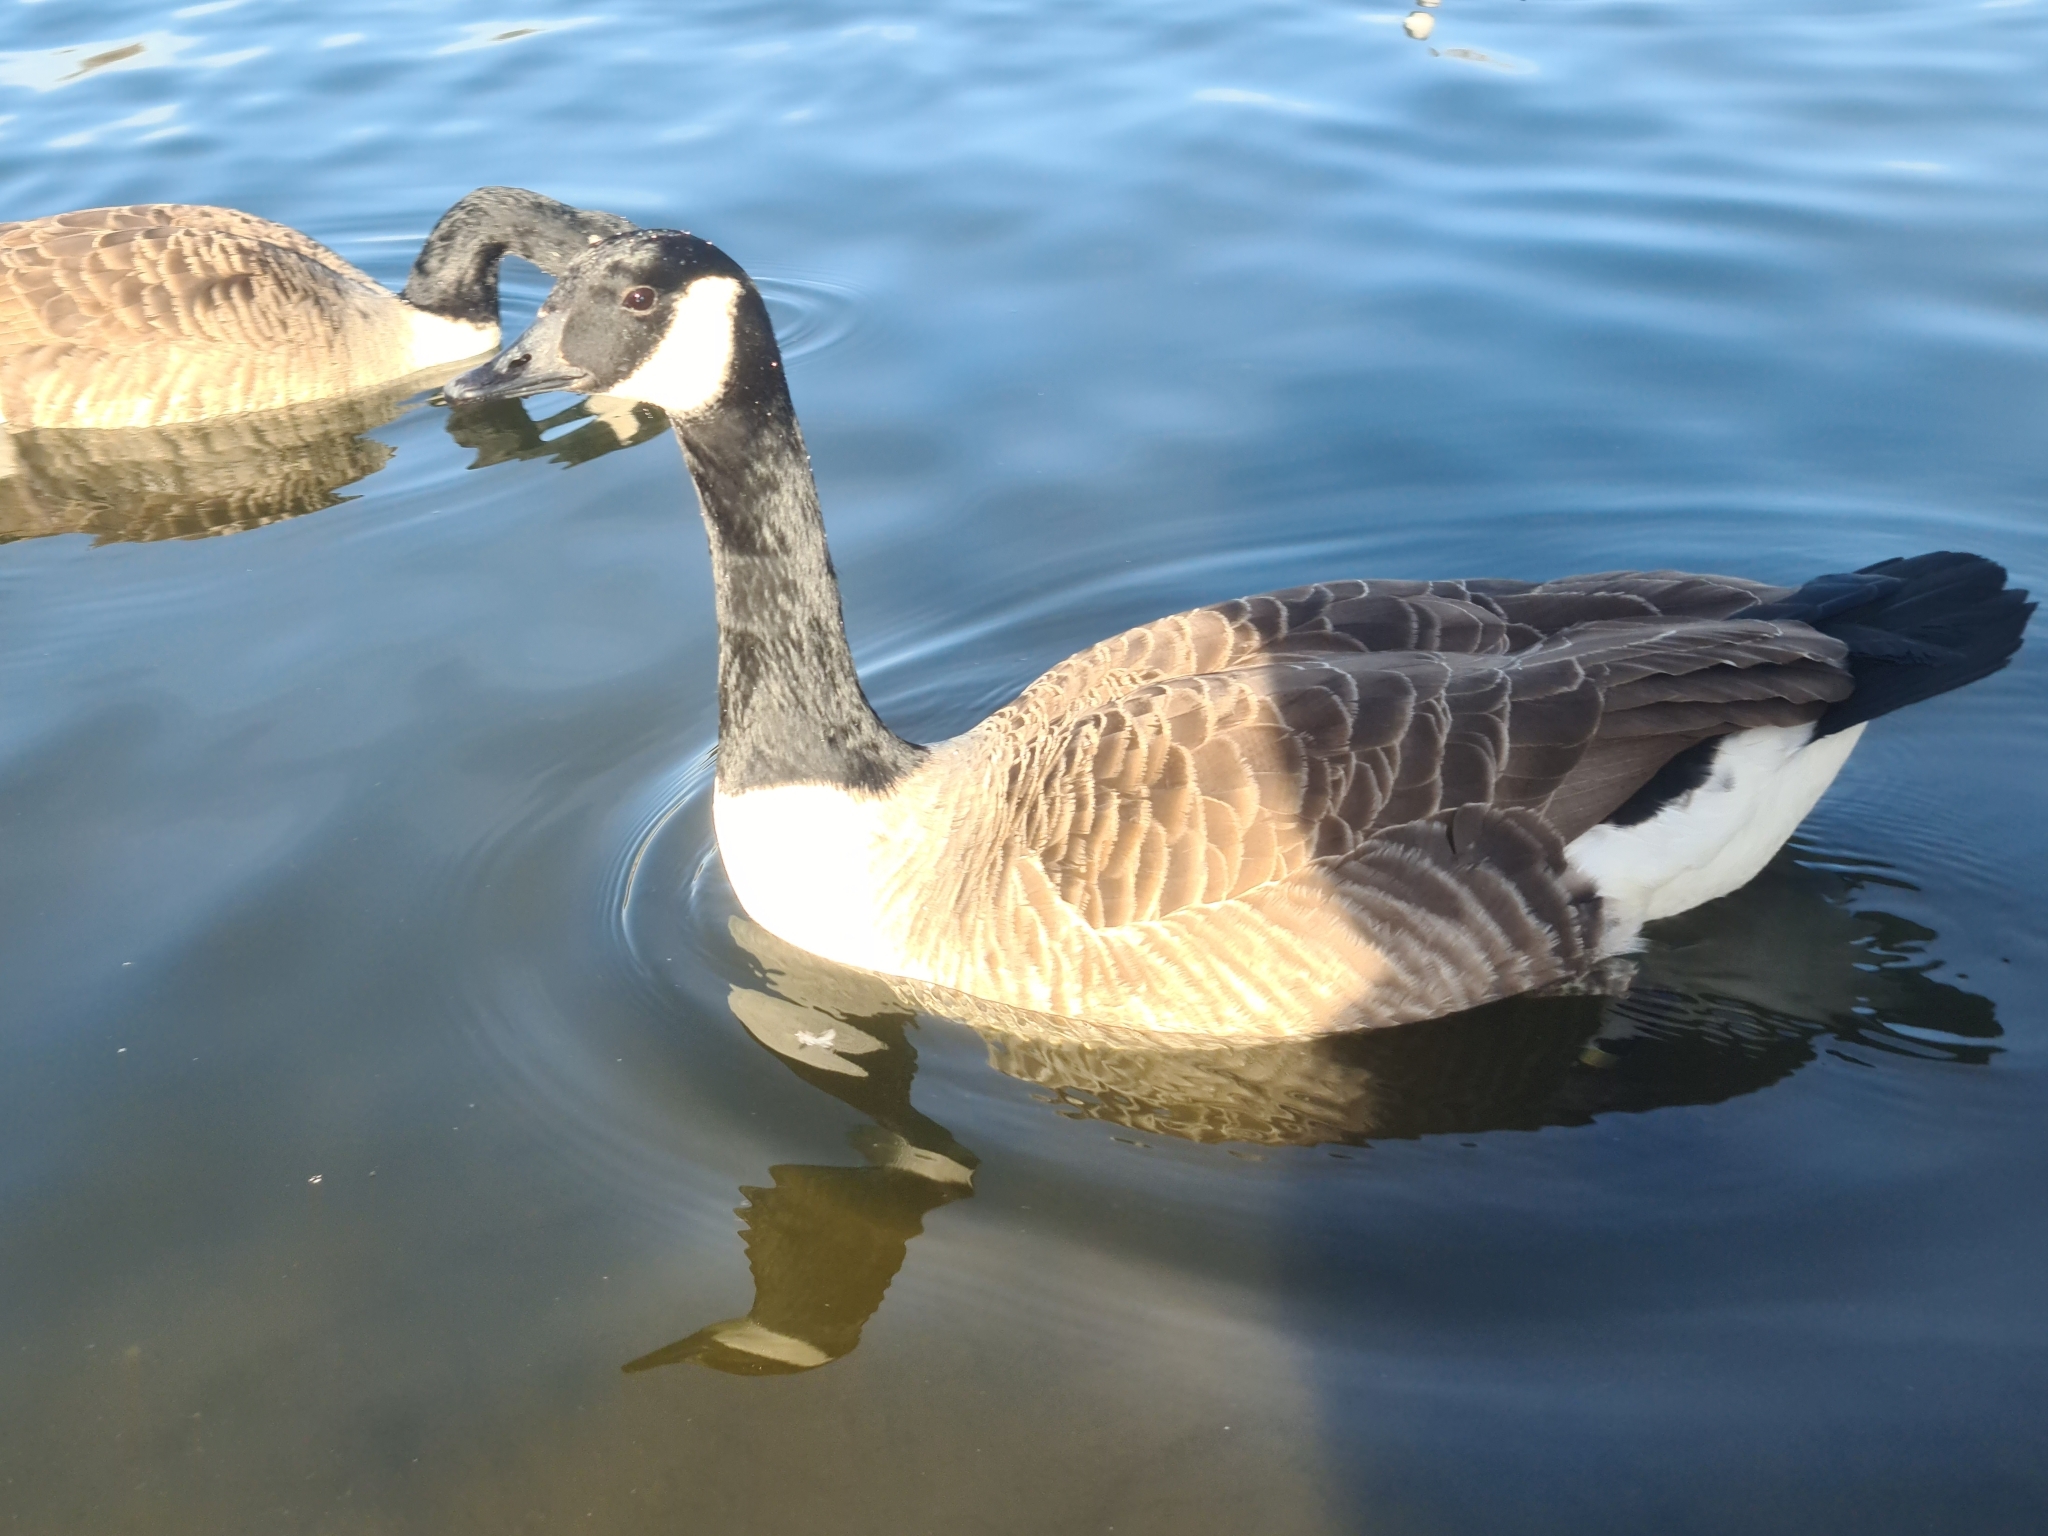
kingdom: Animalia
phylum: Chordata
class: Aves
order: Anseriformes
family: Anatidae
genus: Branta
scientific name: Branta canadensis
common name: Canada goose
